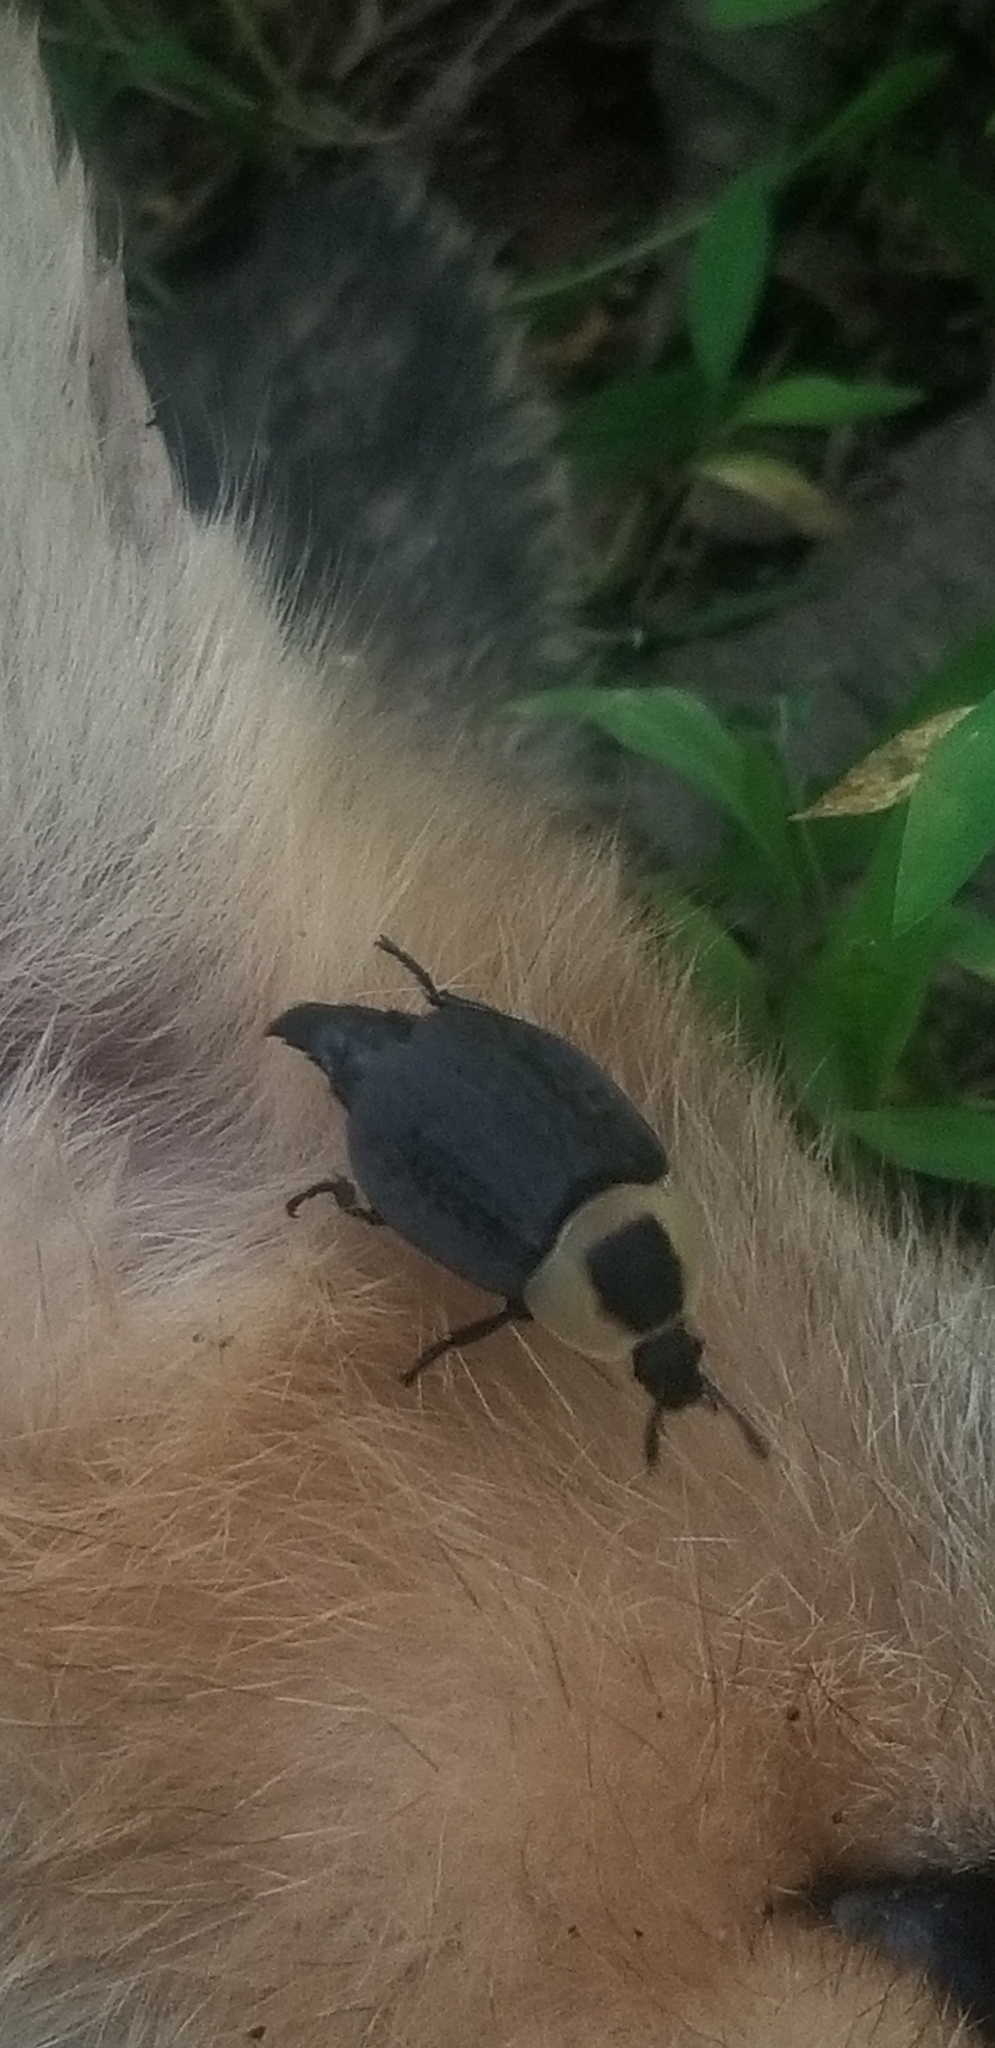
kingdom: Animalia
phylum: Arthropoda
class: Insecta
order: Coleoptera
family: Staphylinidae
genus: Necrophila
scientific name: Necrophila americana
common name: American carrion beetle
